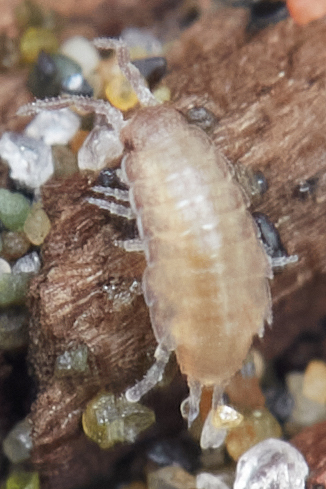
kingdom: Animalia
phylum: Arthropoda
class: Malacostraca
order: Isopoda
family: Detonidae
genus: Detonella
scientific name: Detonella papillicornis
